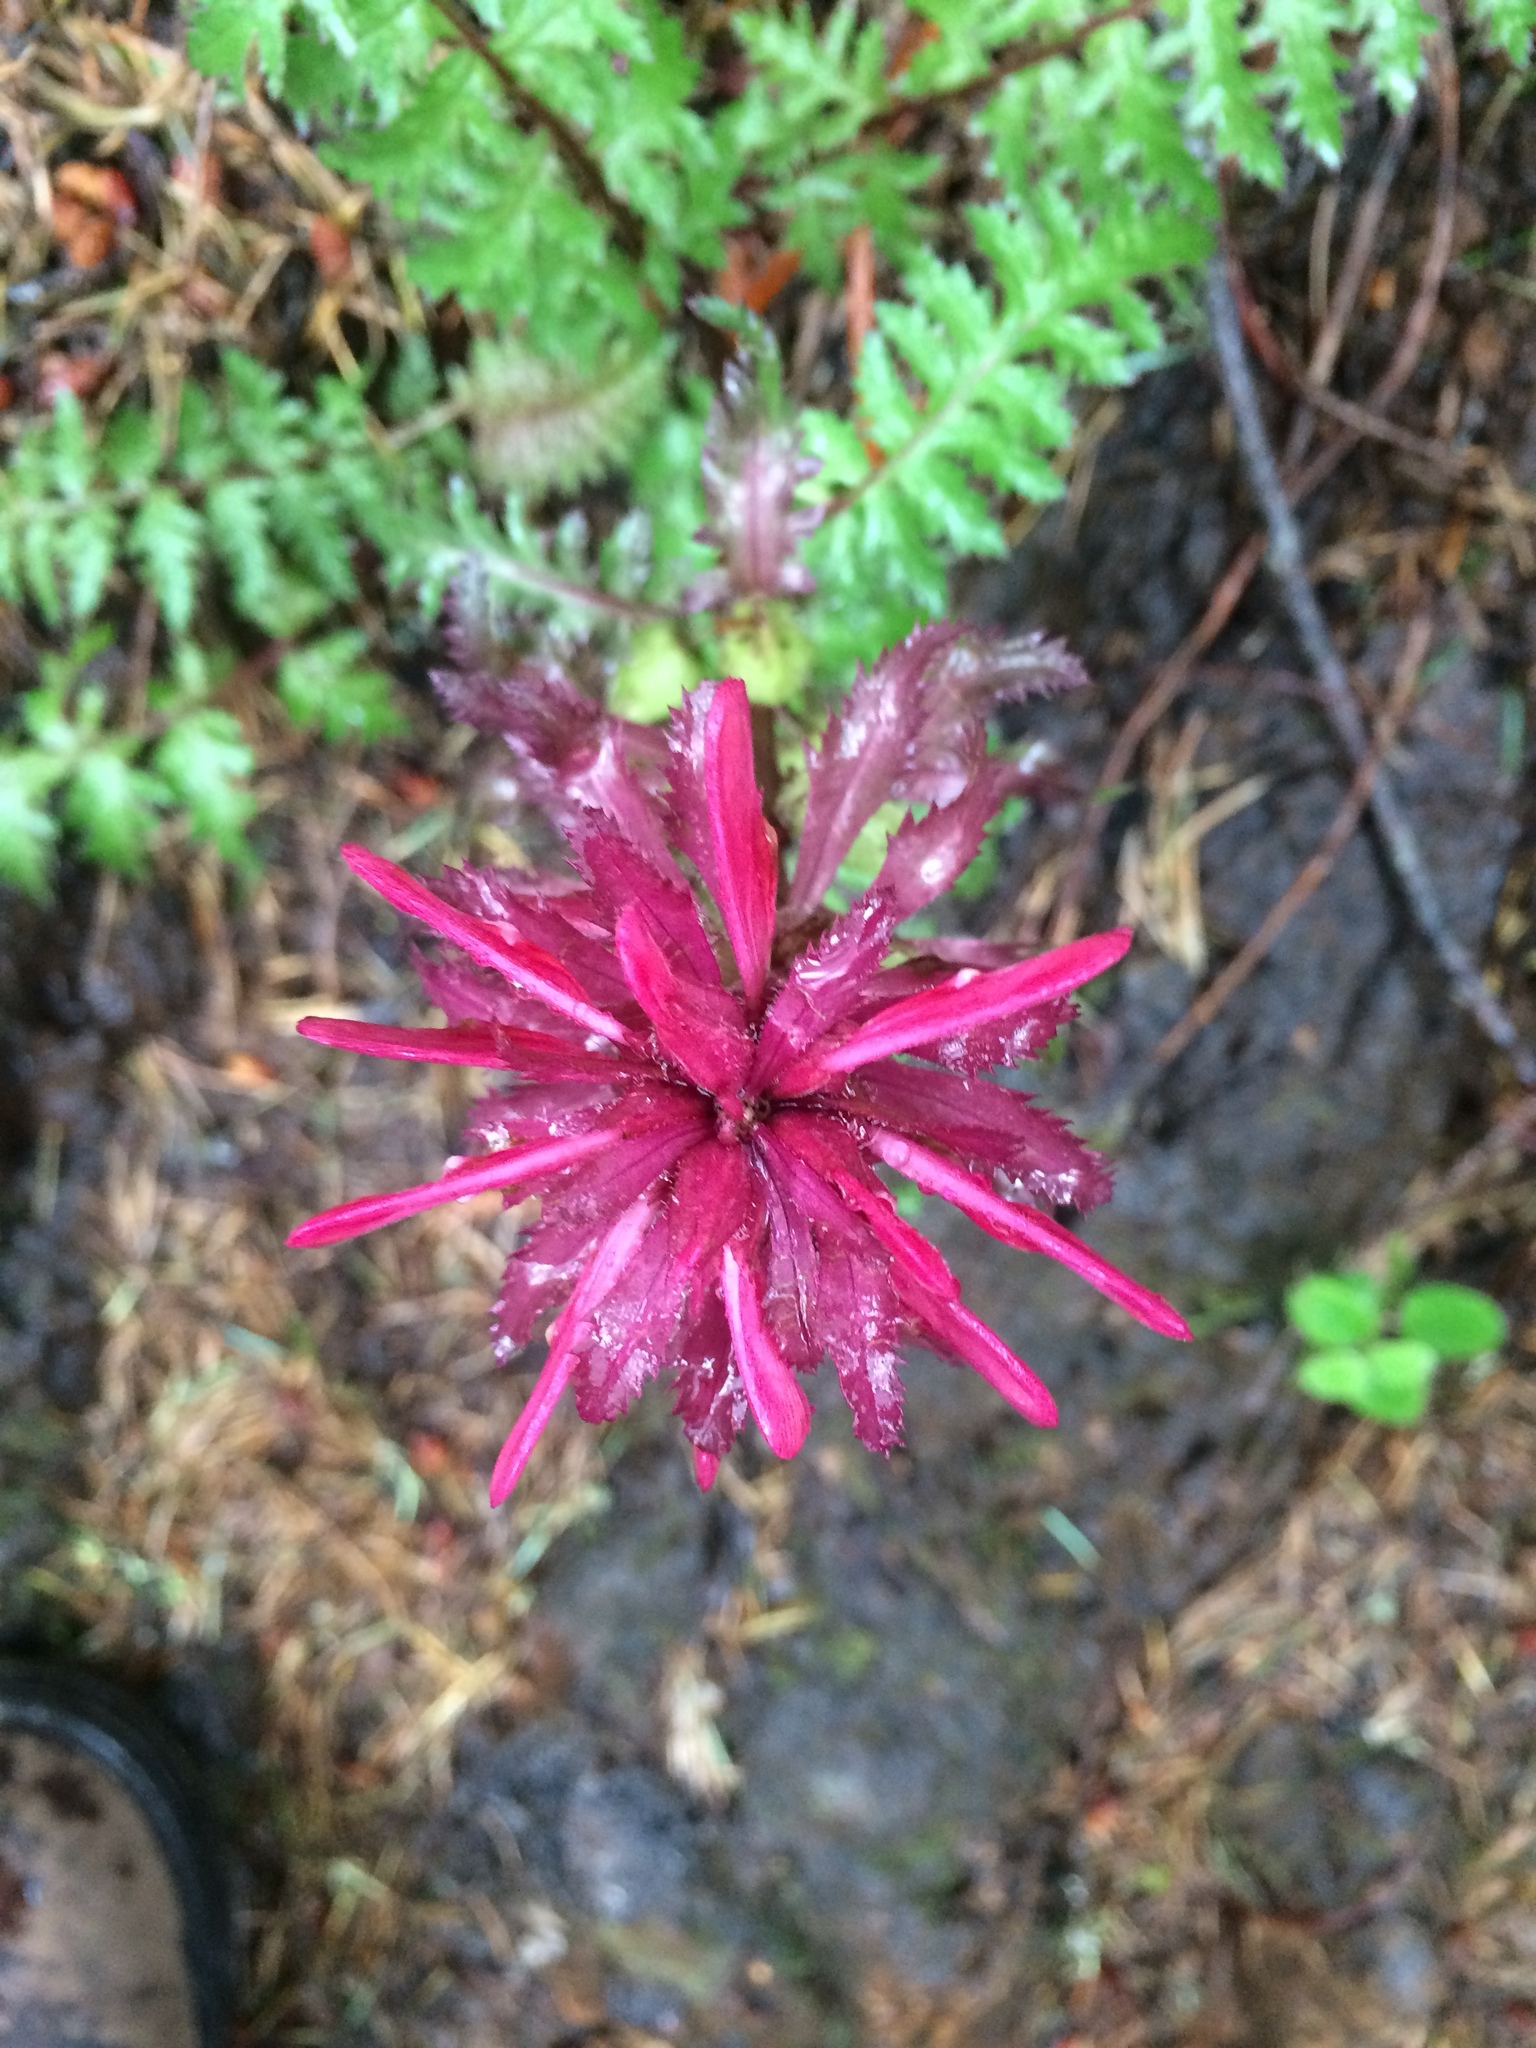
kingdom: Plantae
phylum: Tracheophyta
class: Magnoliopsida
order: Lamiales
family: Orobanchaceae
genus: Pedicularis
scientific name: Pedicularis densiflora
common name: Indian warrior
